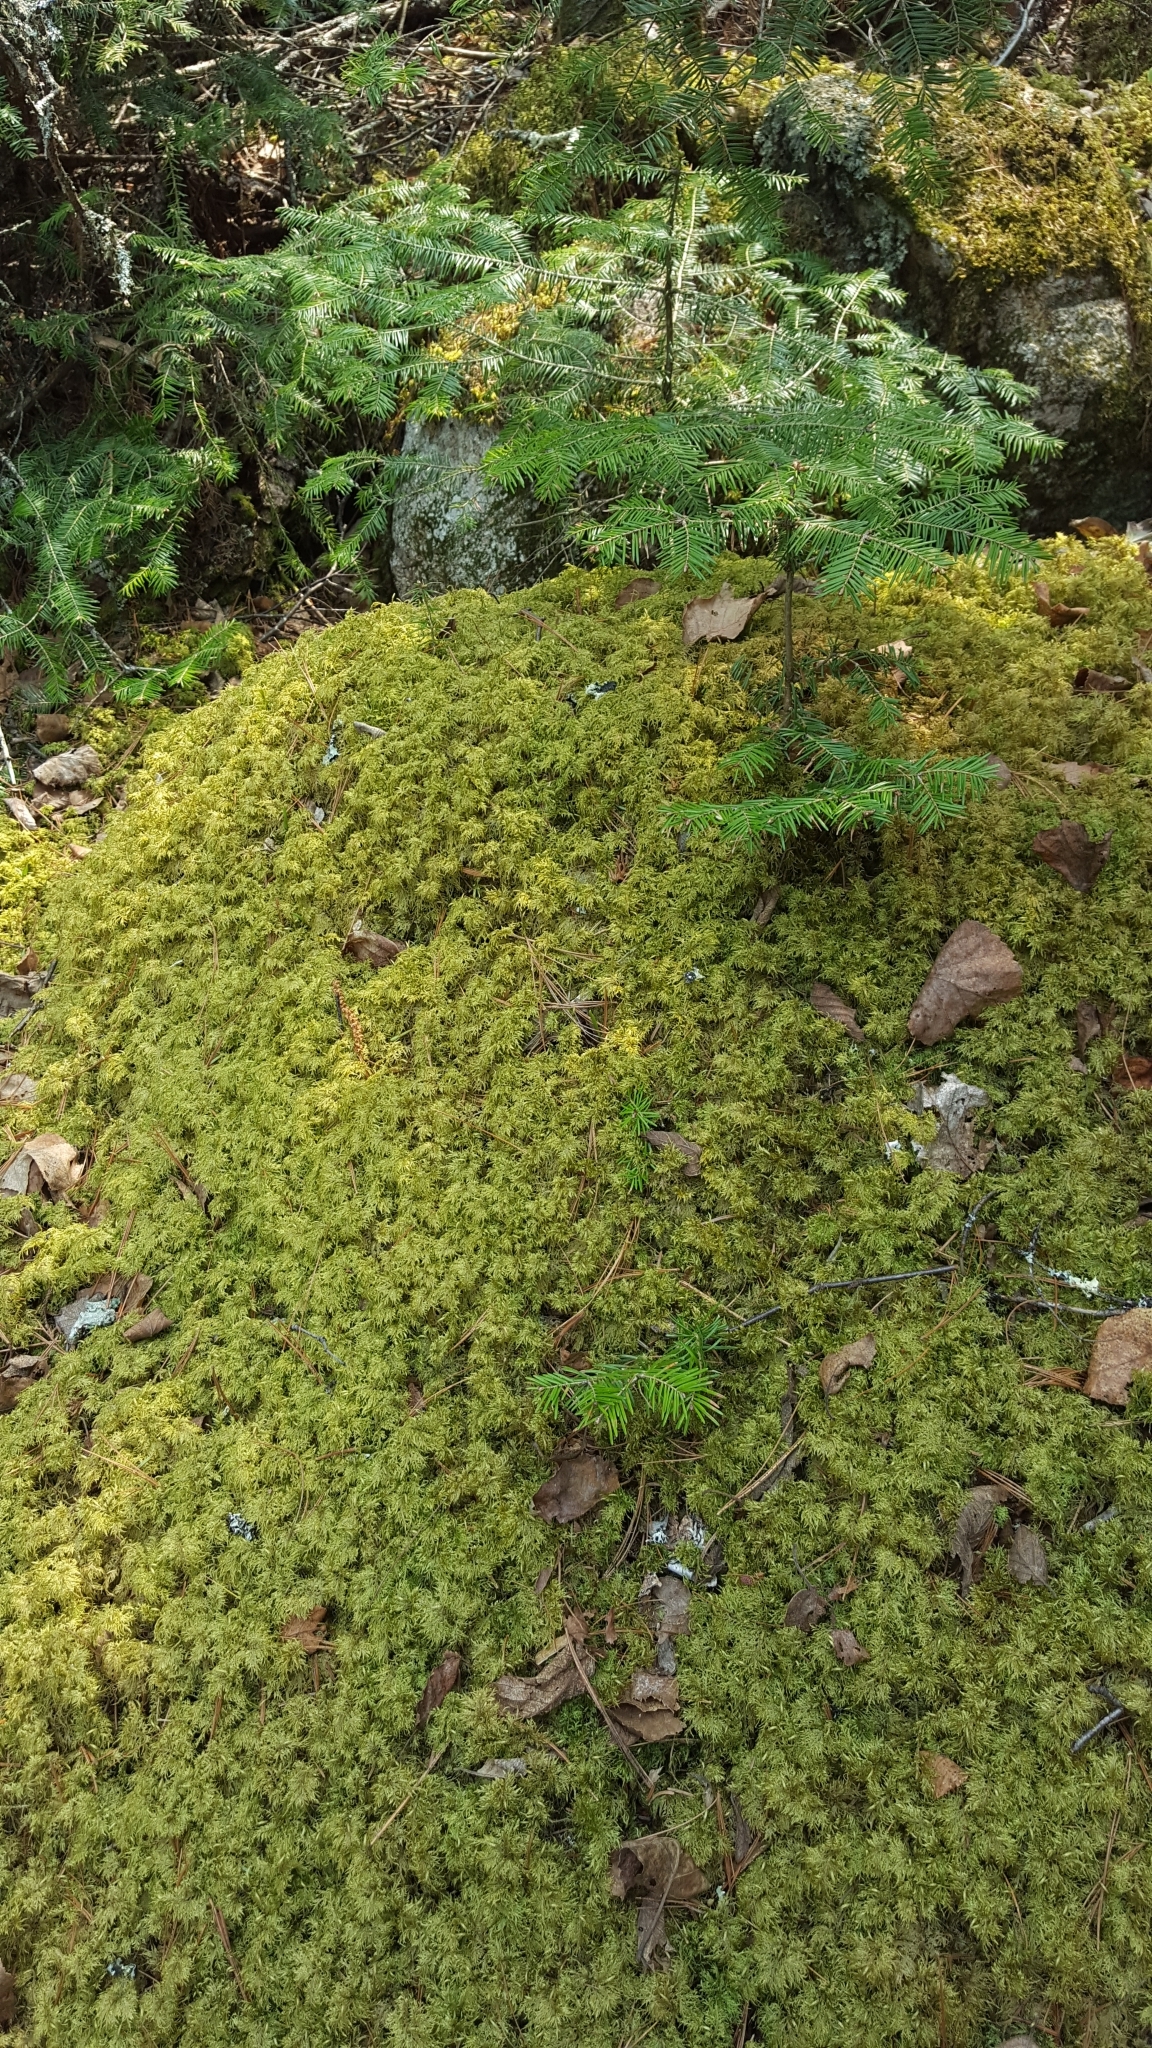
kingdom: Plantae
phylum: Bryophyta
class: Bryopsida
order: Hypnales
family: Hylocomiaceae
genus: Hylocomium
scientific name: Hylocomium splendens
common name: Stairstep moss
